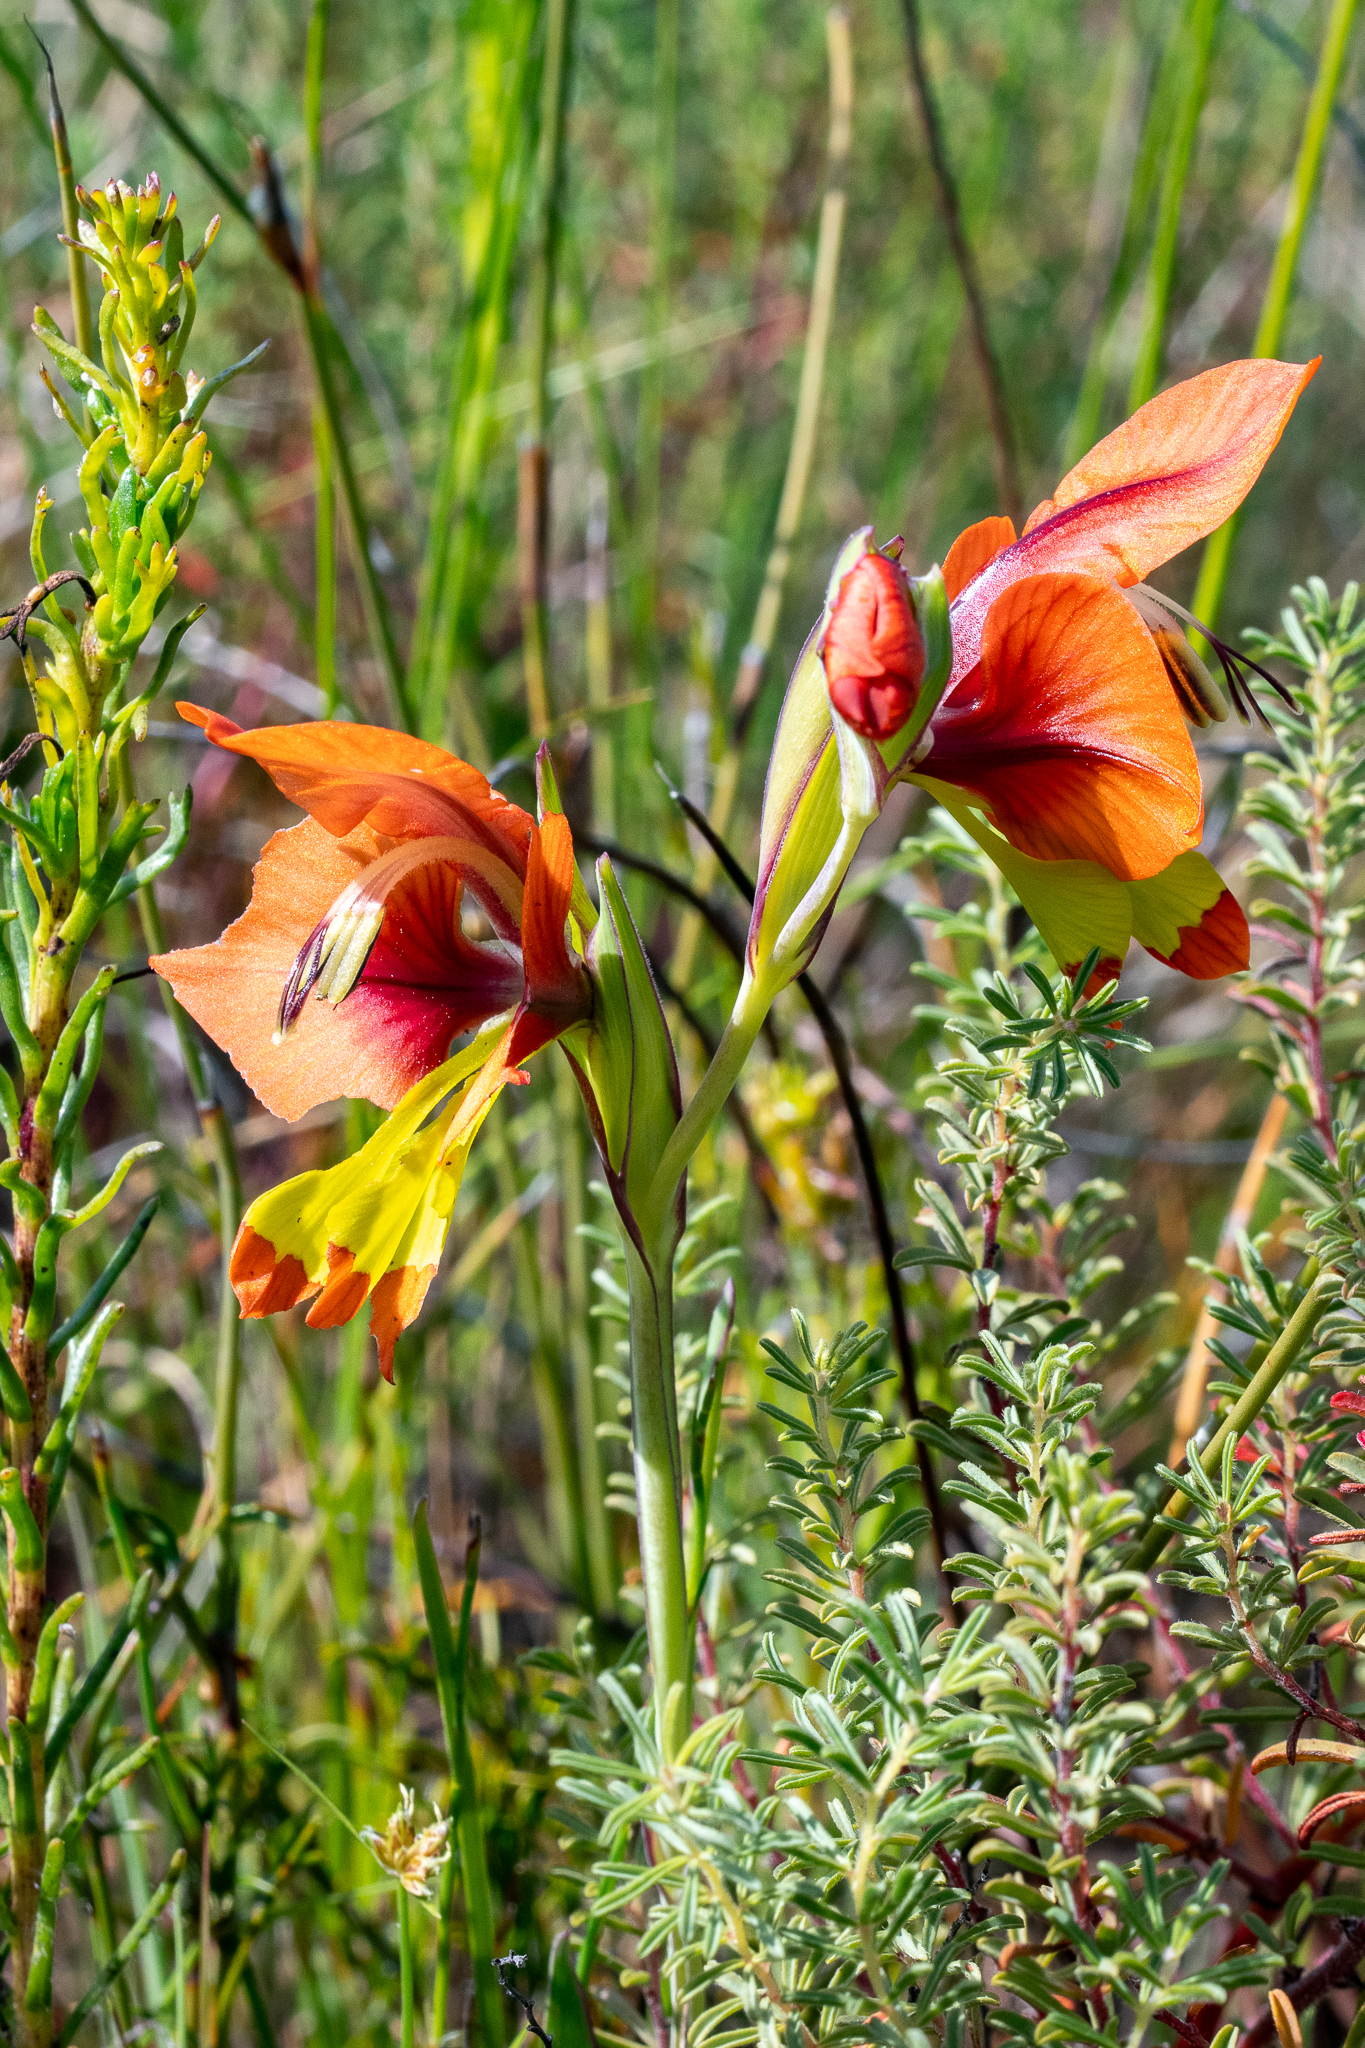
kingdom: Plantae
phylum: Tracheophyta
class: Liliopsida
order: Asparagales
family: Iridaceae
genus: Gladiolus
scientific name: Gladiolus alatus
